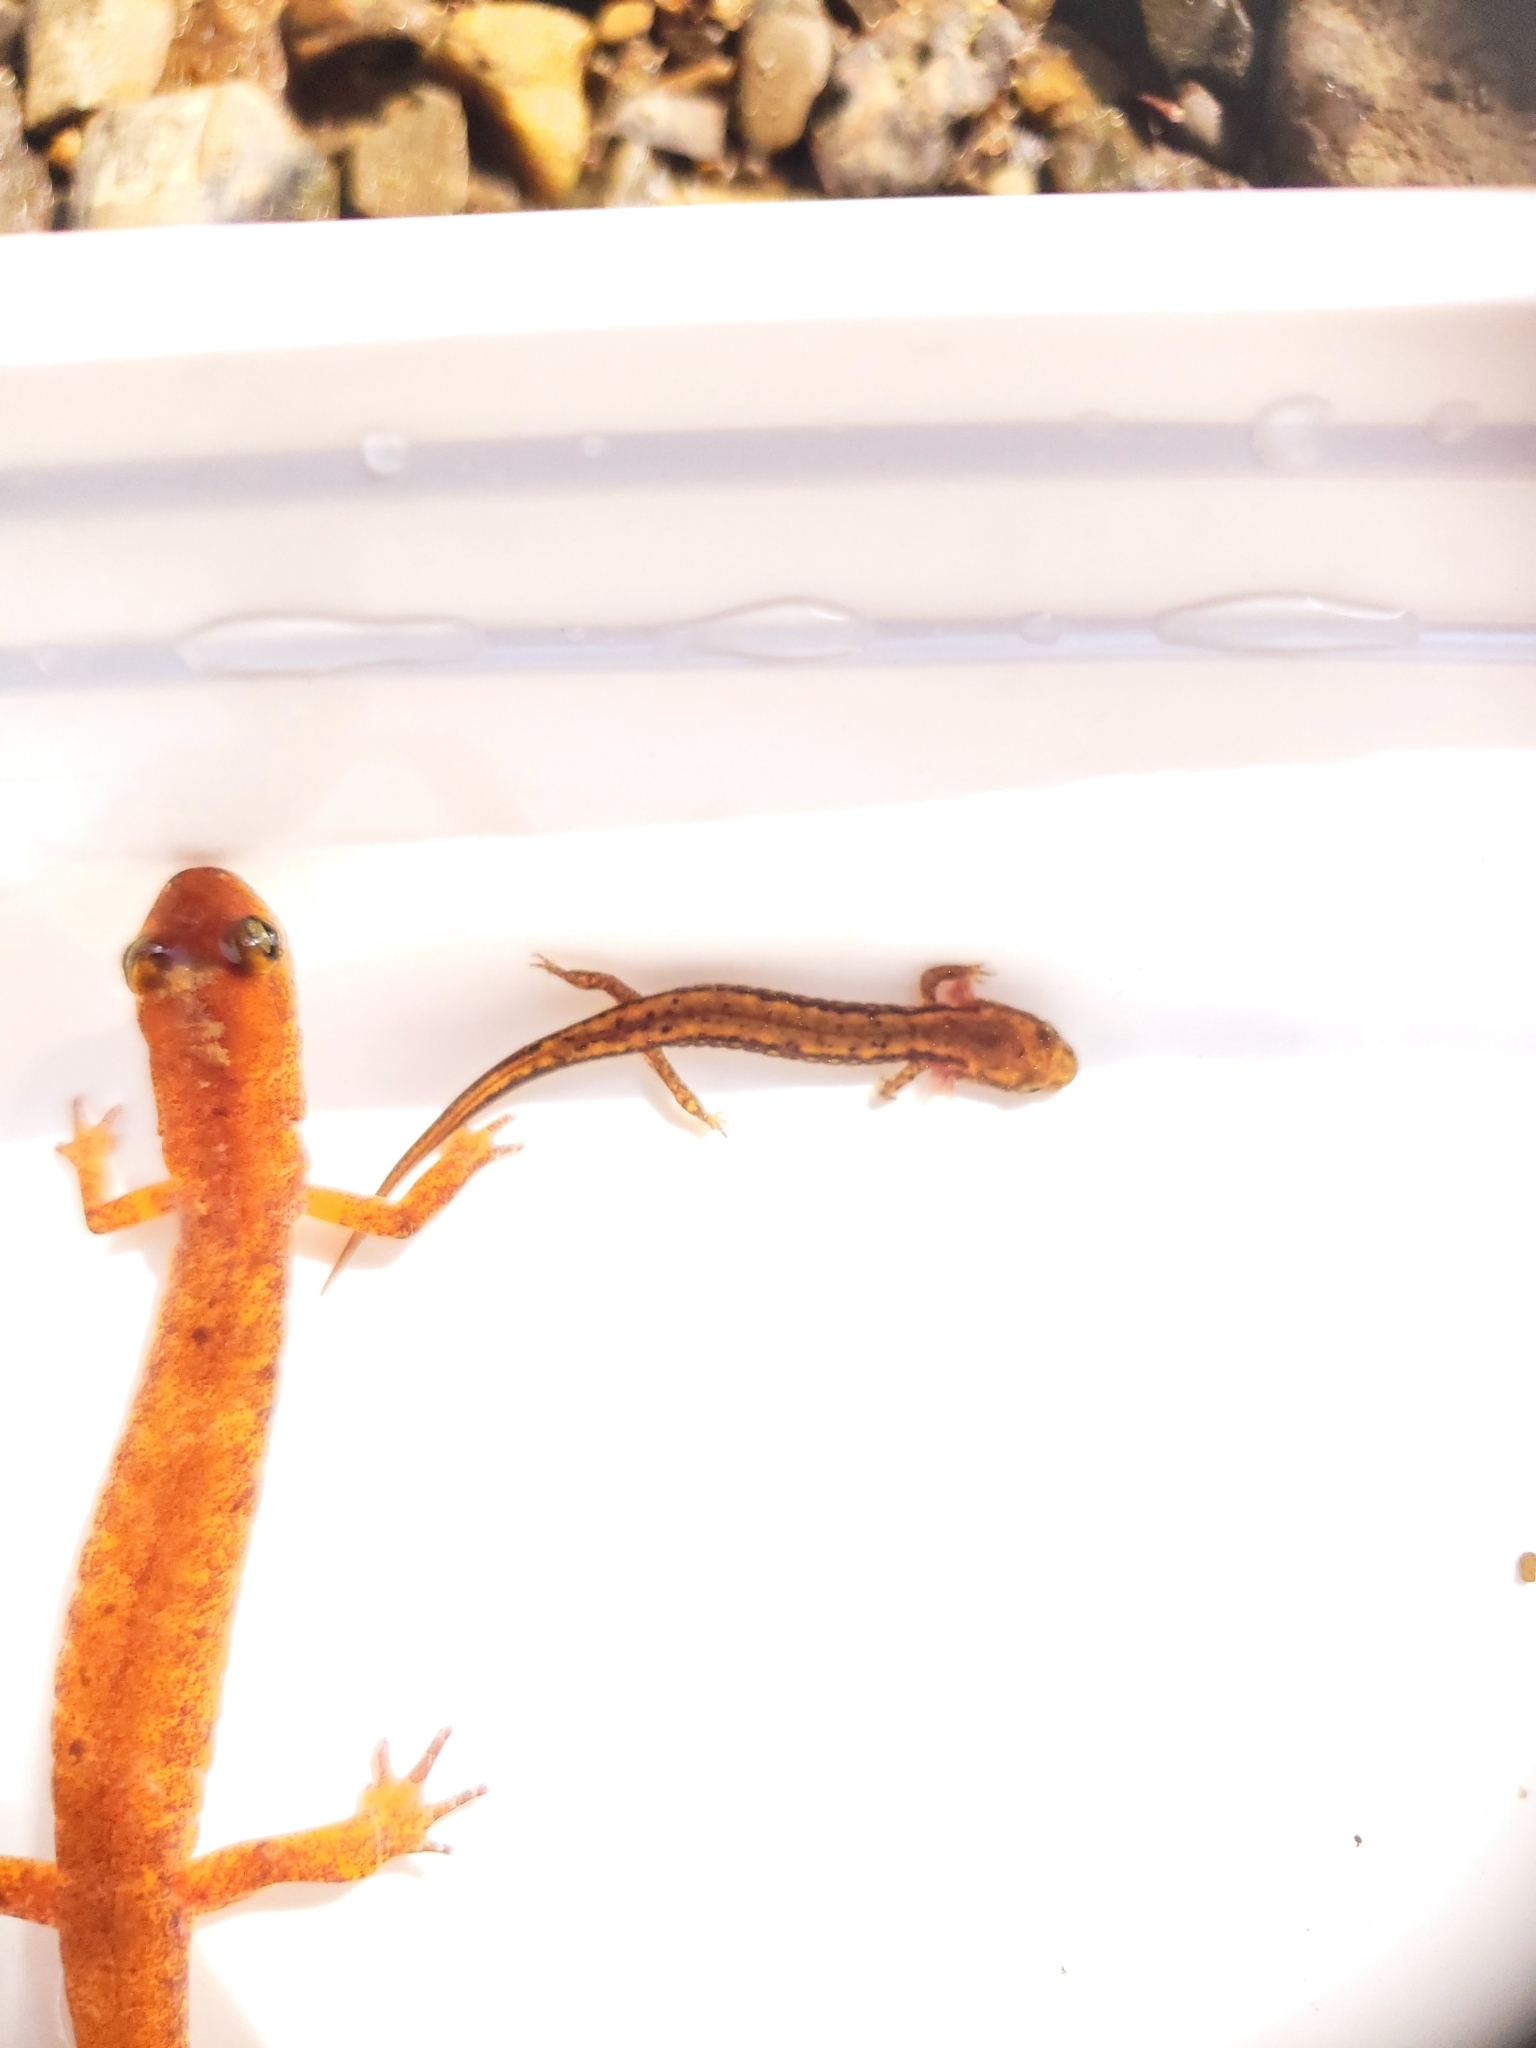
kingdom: Animalia
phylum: Chordata
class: Amphibia
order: Caudata
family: Plethodontidae
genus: Eurycea
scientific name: Eurycea longicauda
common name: Long-tailed salamander
